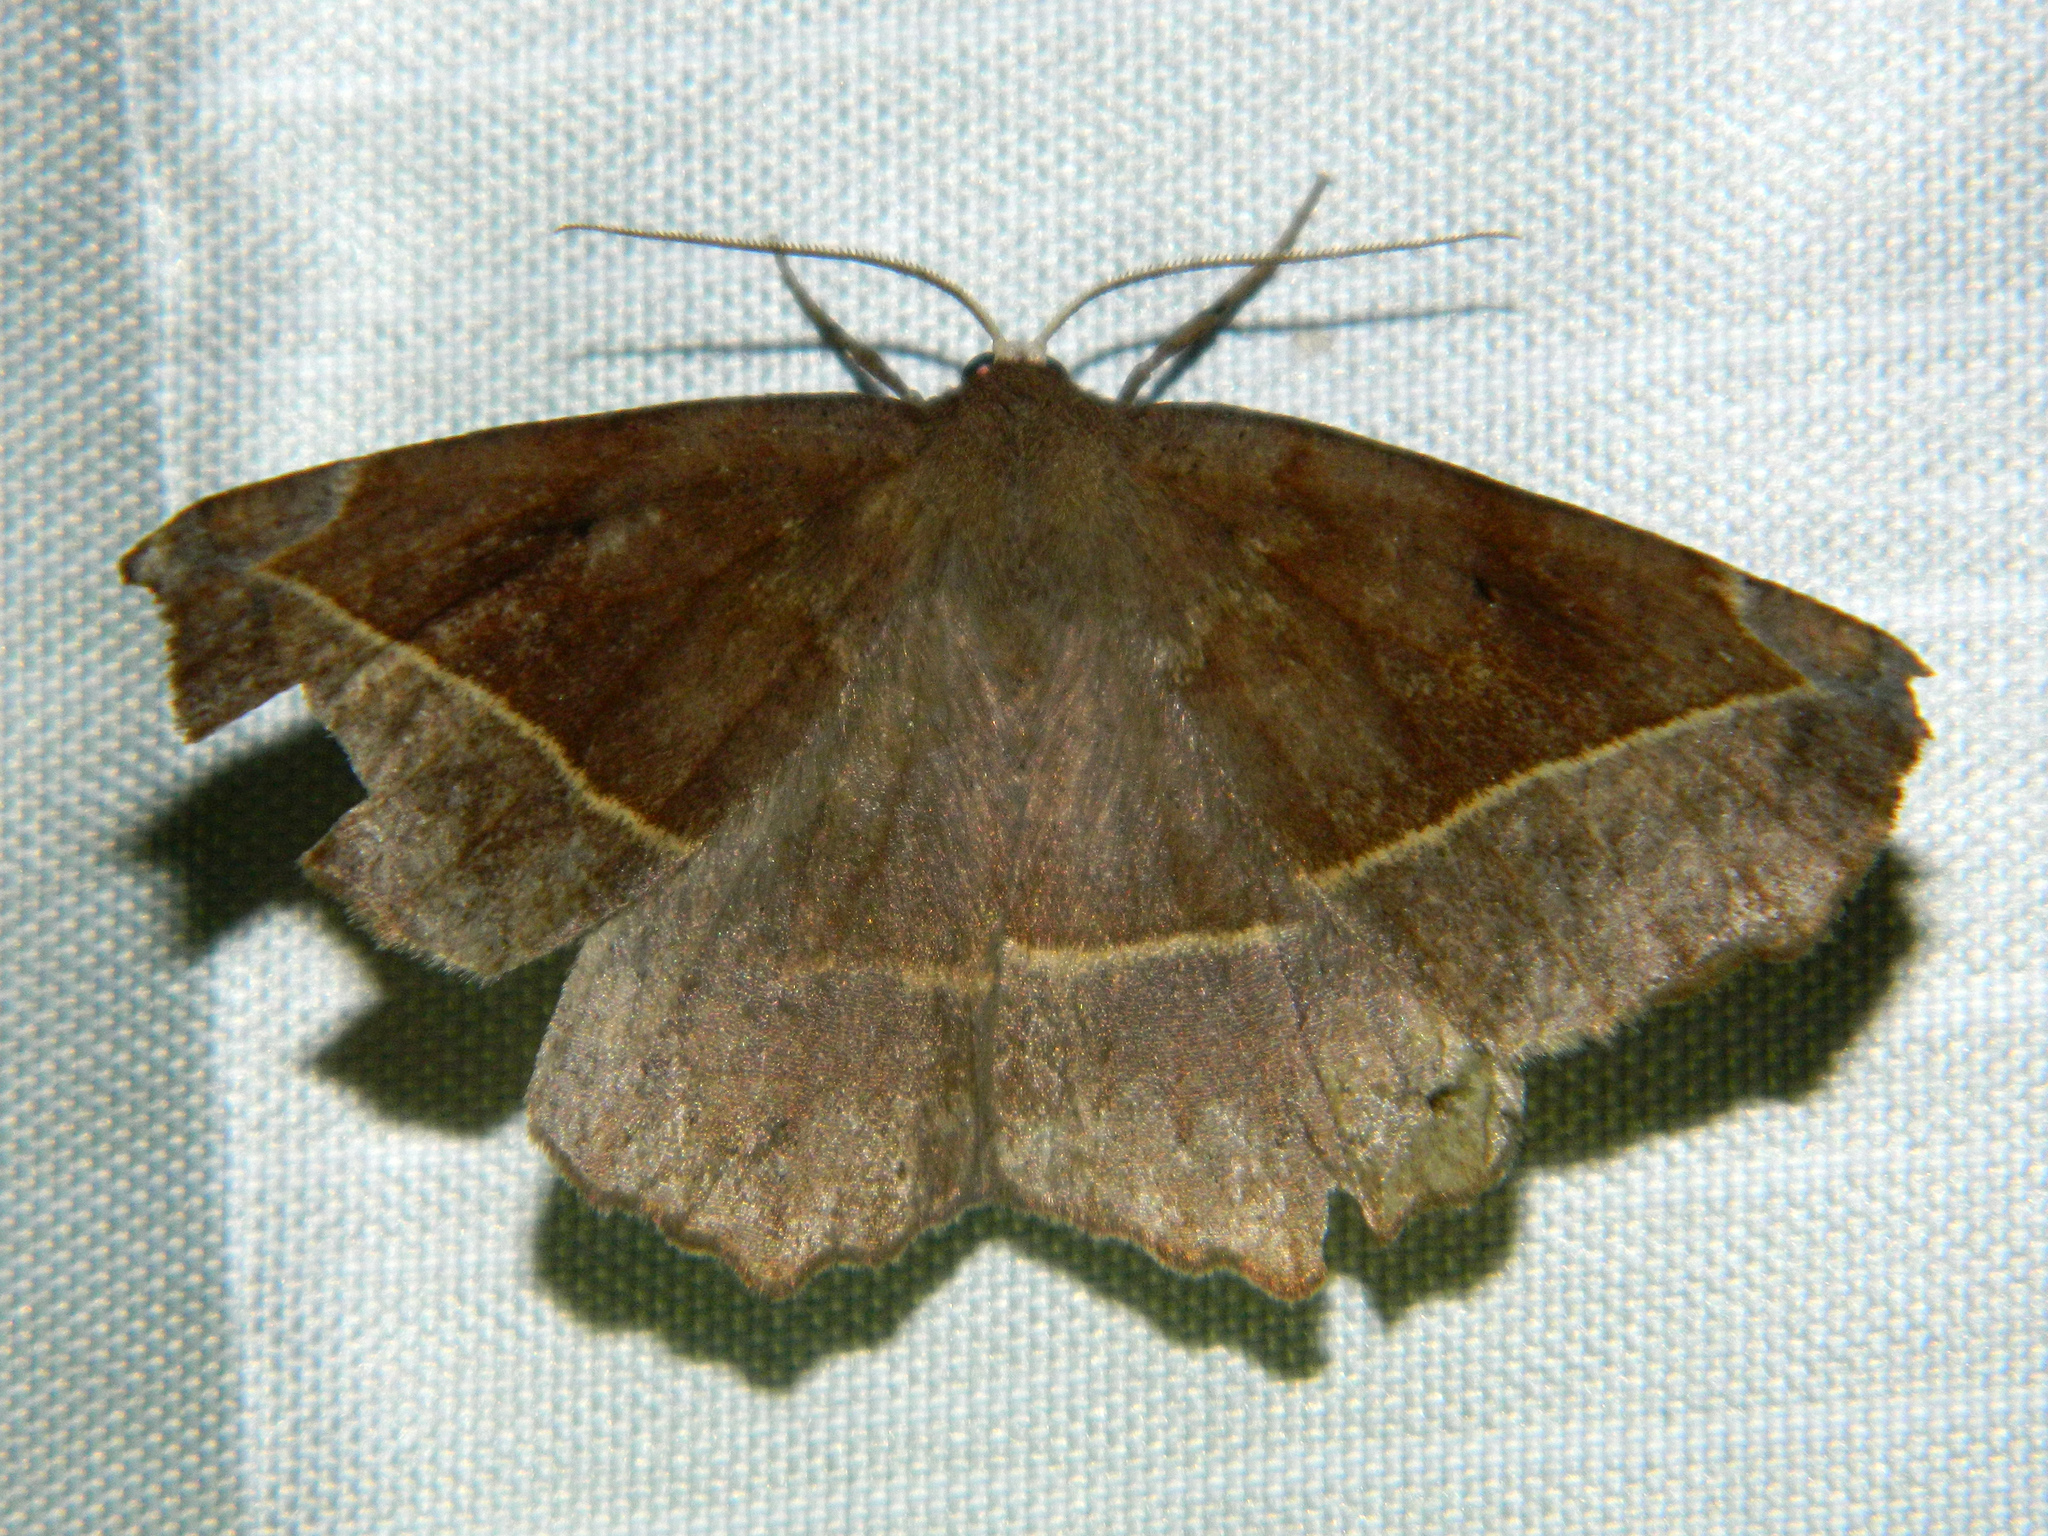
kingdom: Animalia
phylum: Arthropoda
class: Insecta
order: Lepidoptera
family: Geometridae
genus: Eutrapela
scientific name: Eutrapela clemataria
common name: Curved-toothed geometer
